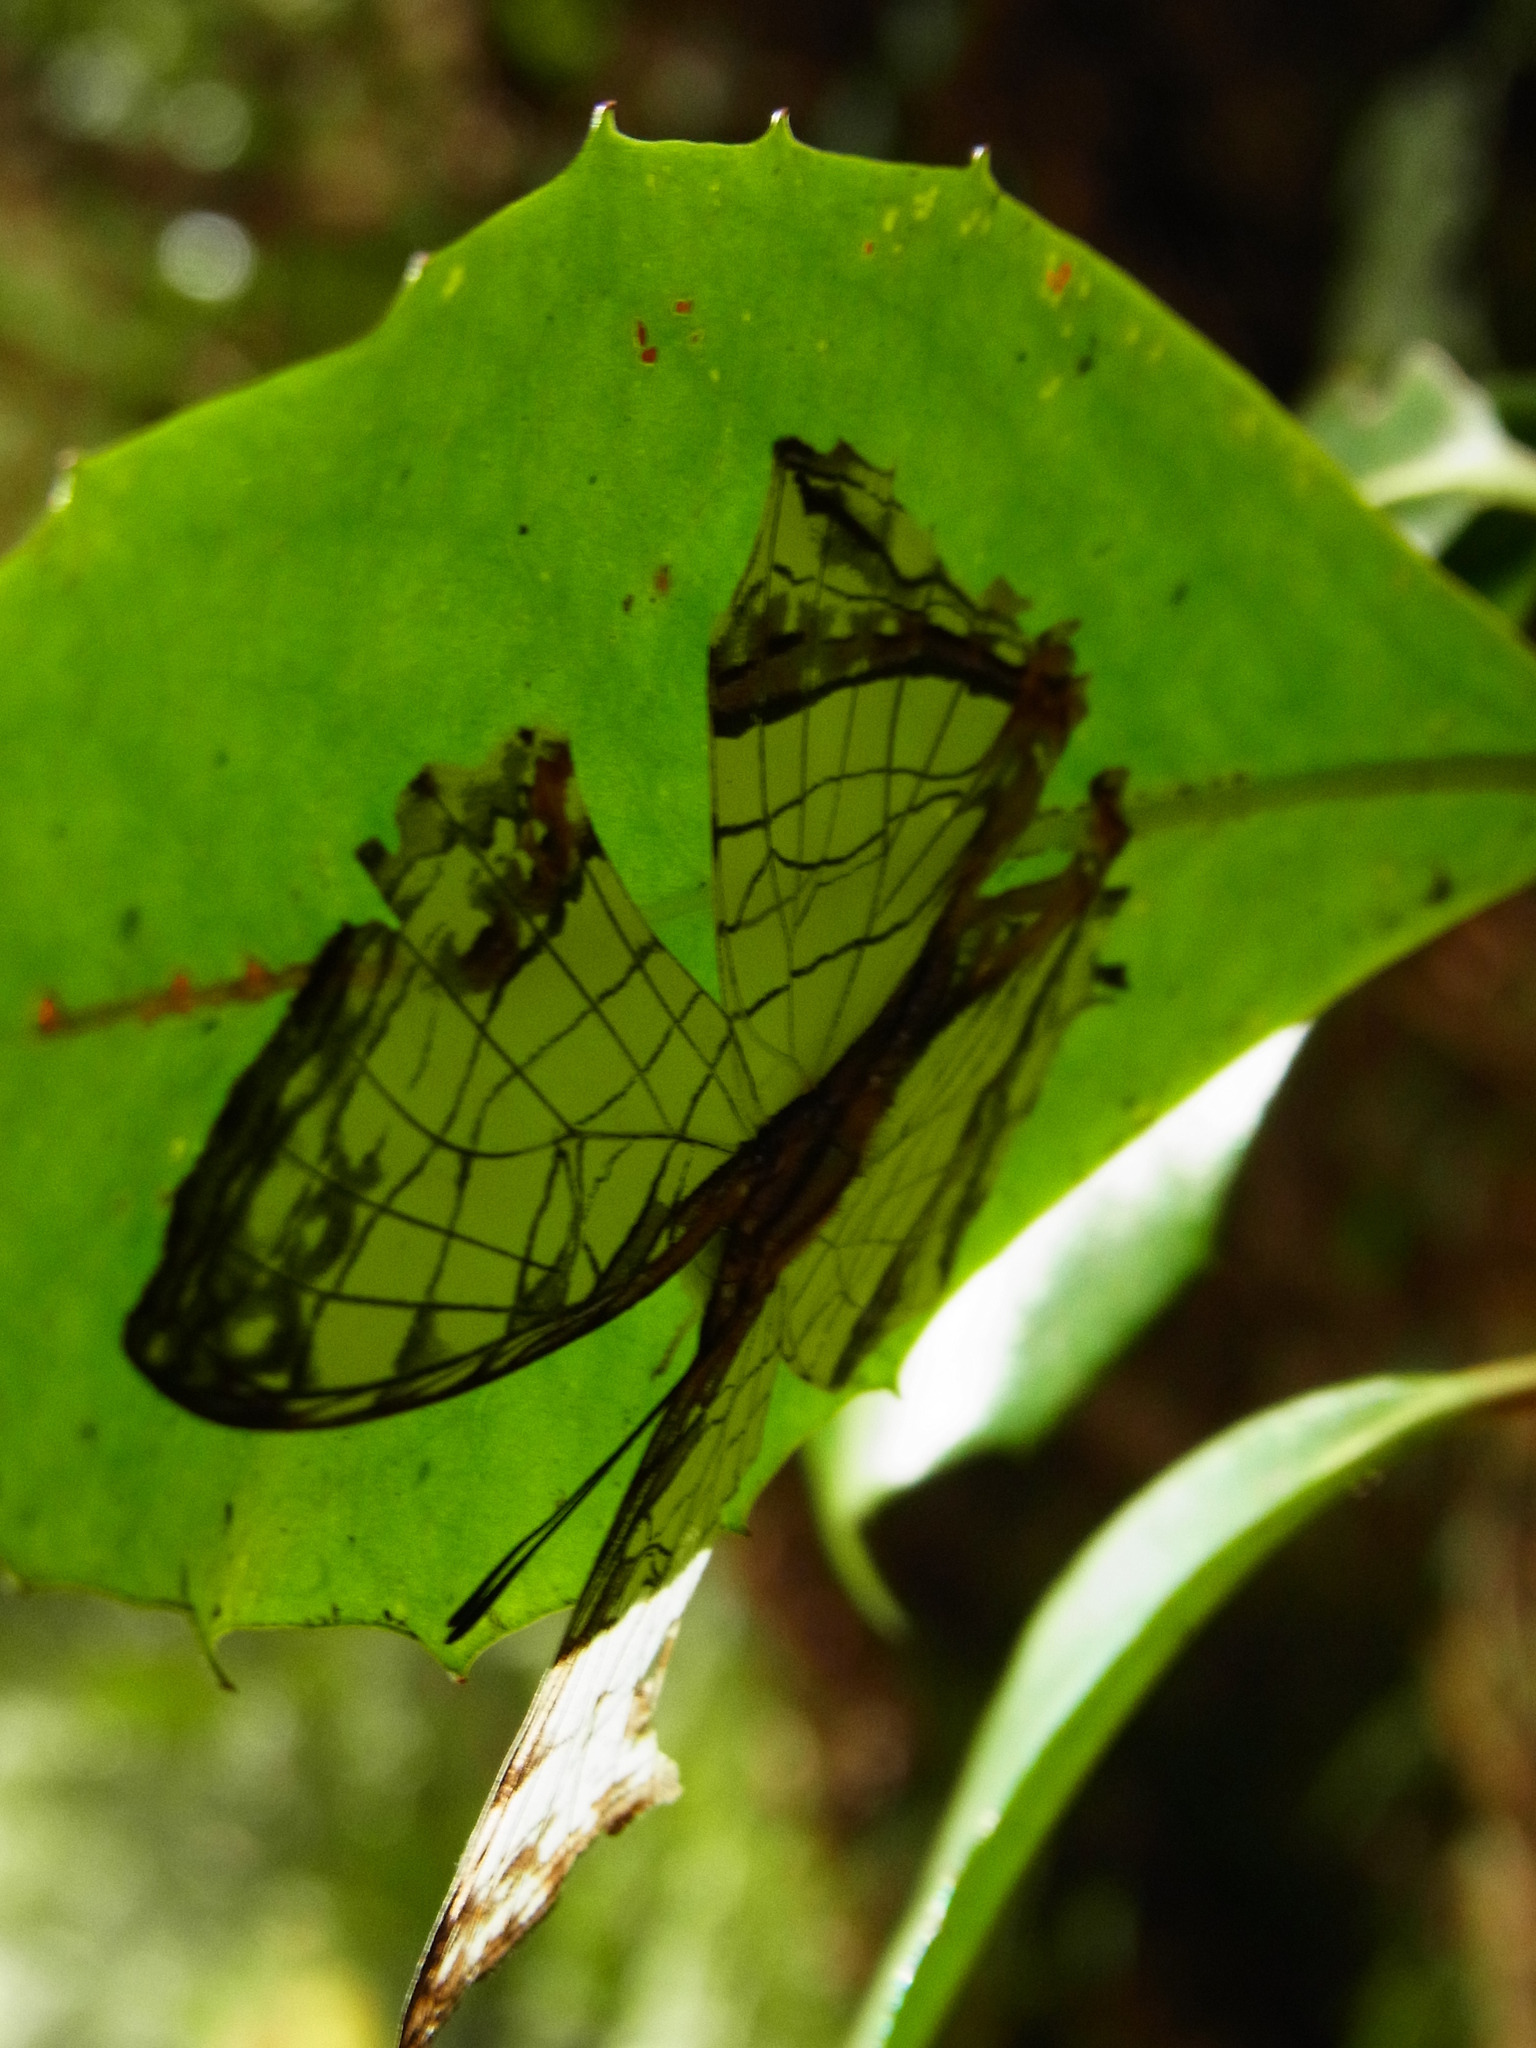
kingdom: Animalia
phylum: Arthropoda
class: Insecta
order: Lepidoptera
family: Nymphalidae
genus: Cyrestis
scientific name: Cyrestis thyodamas
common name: Common mapwing
